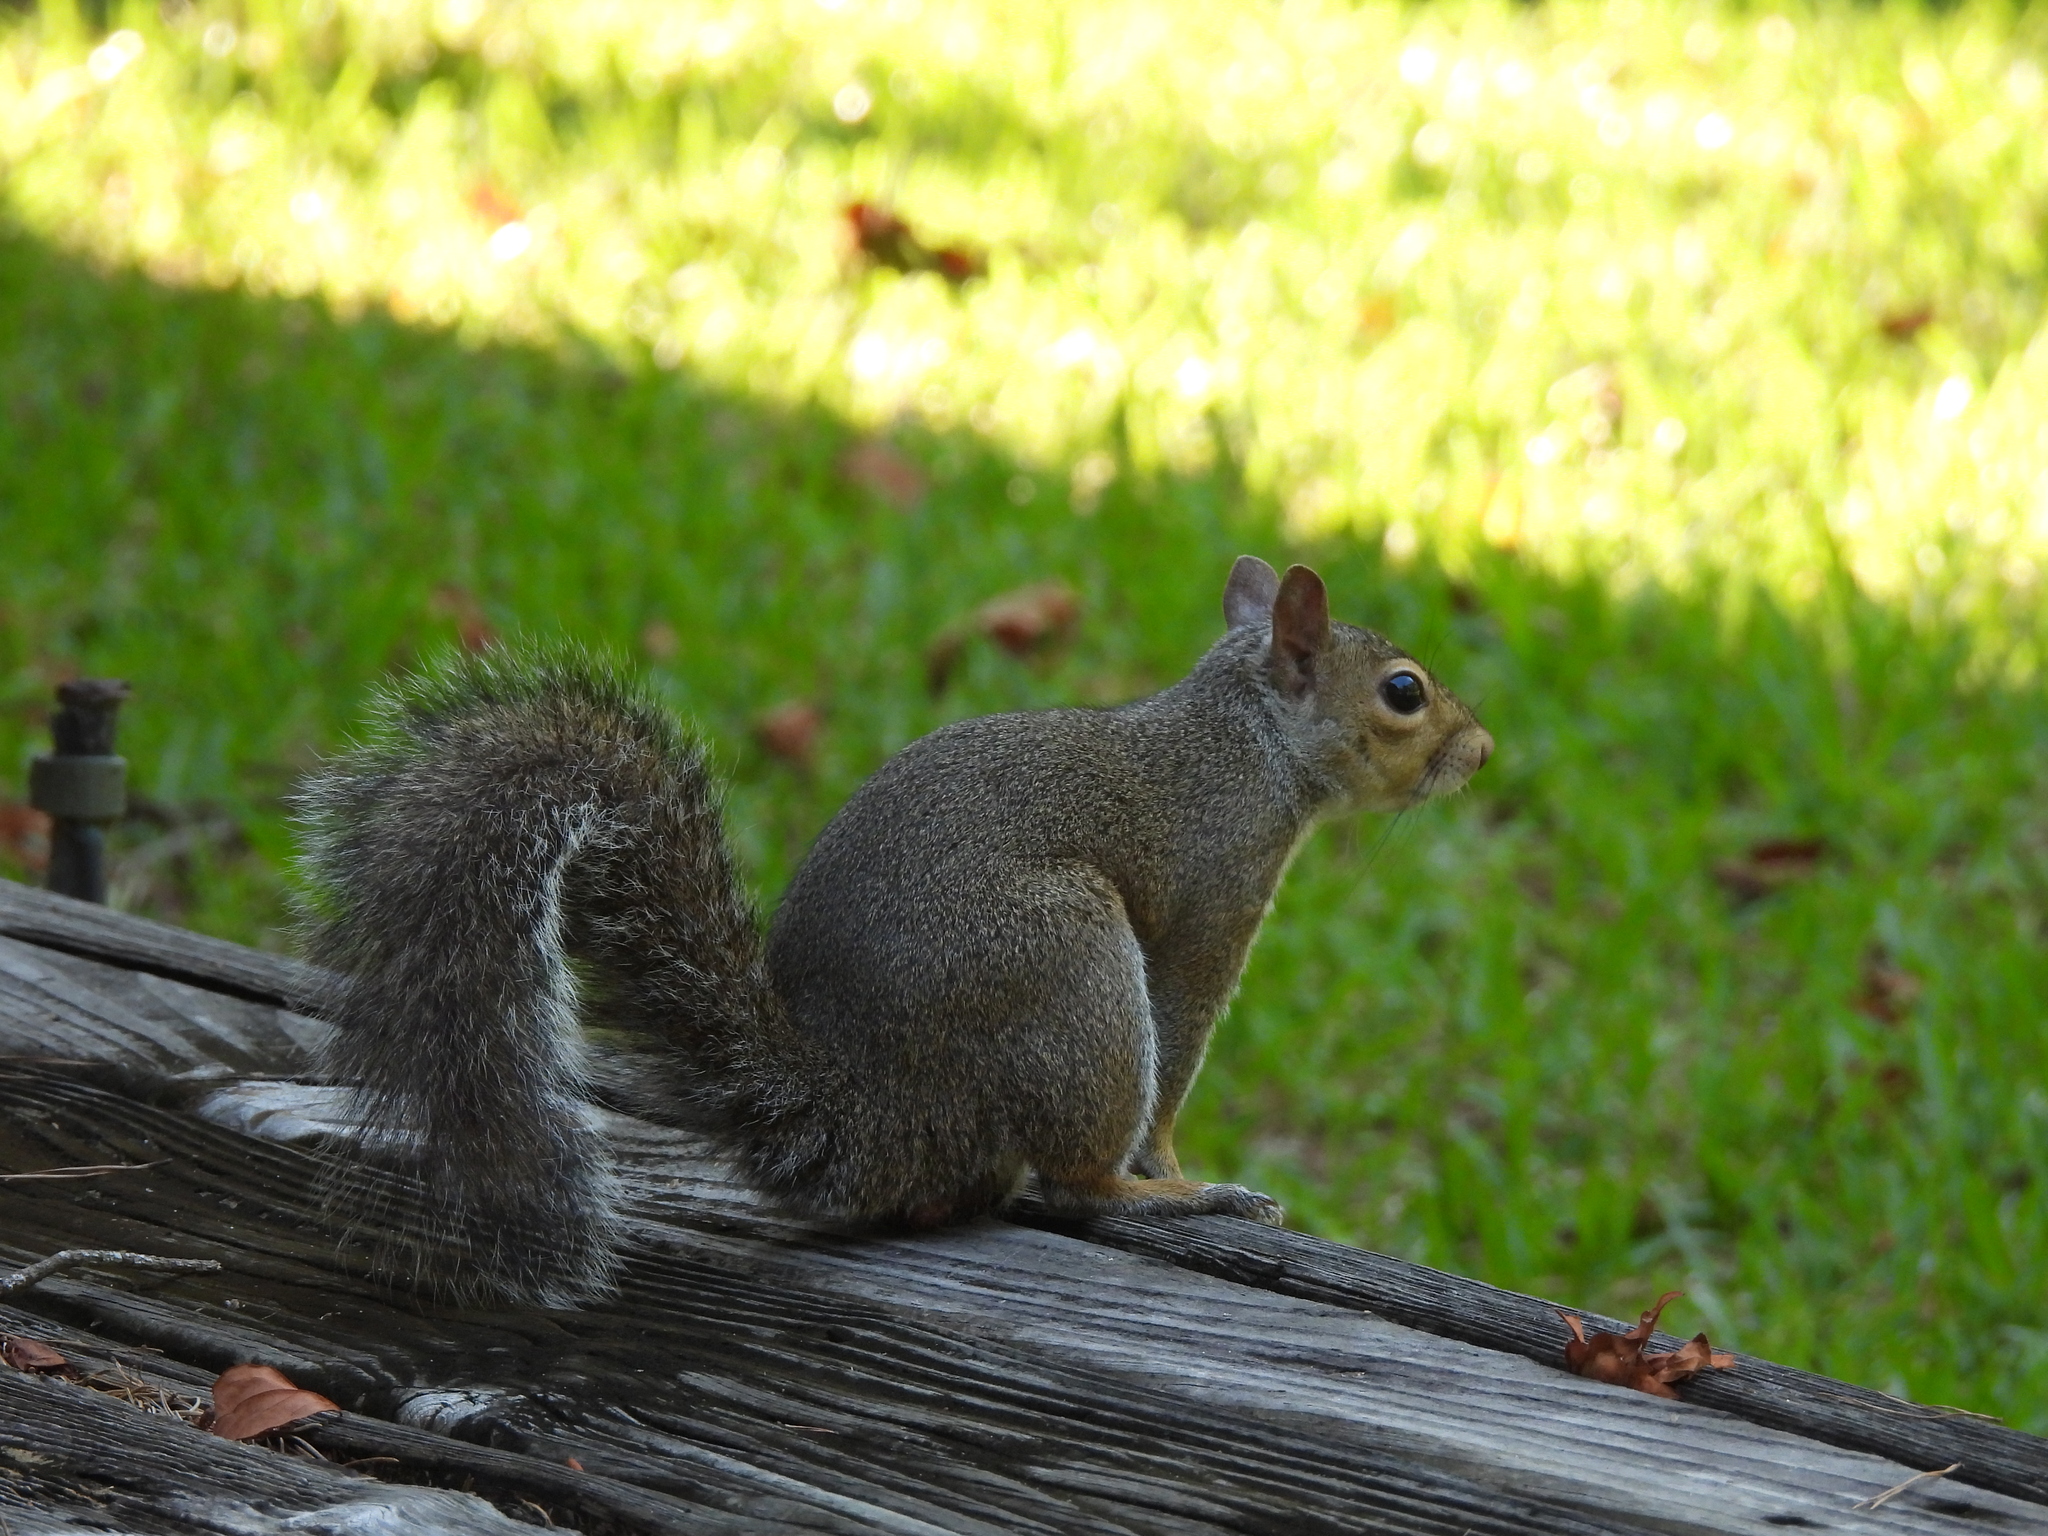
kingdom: Animalia
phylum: Chordata
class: Mammalia
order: Rodentia
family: Sciuridae
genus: Sciurus
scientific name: Sciurus carolinensis
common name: Eastern gray squirrel
